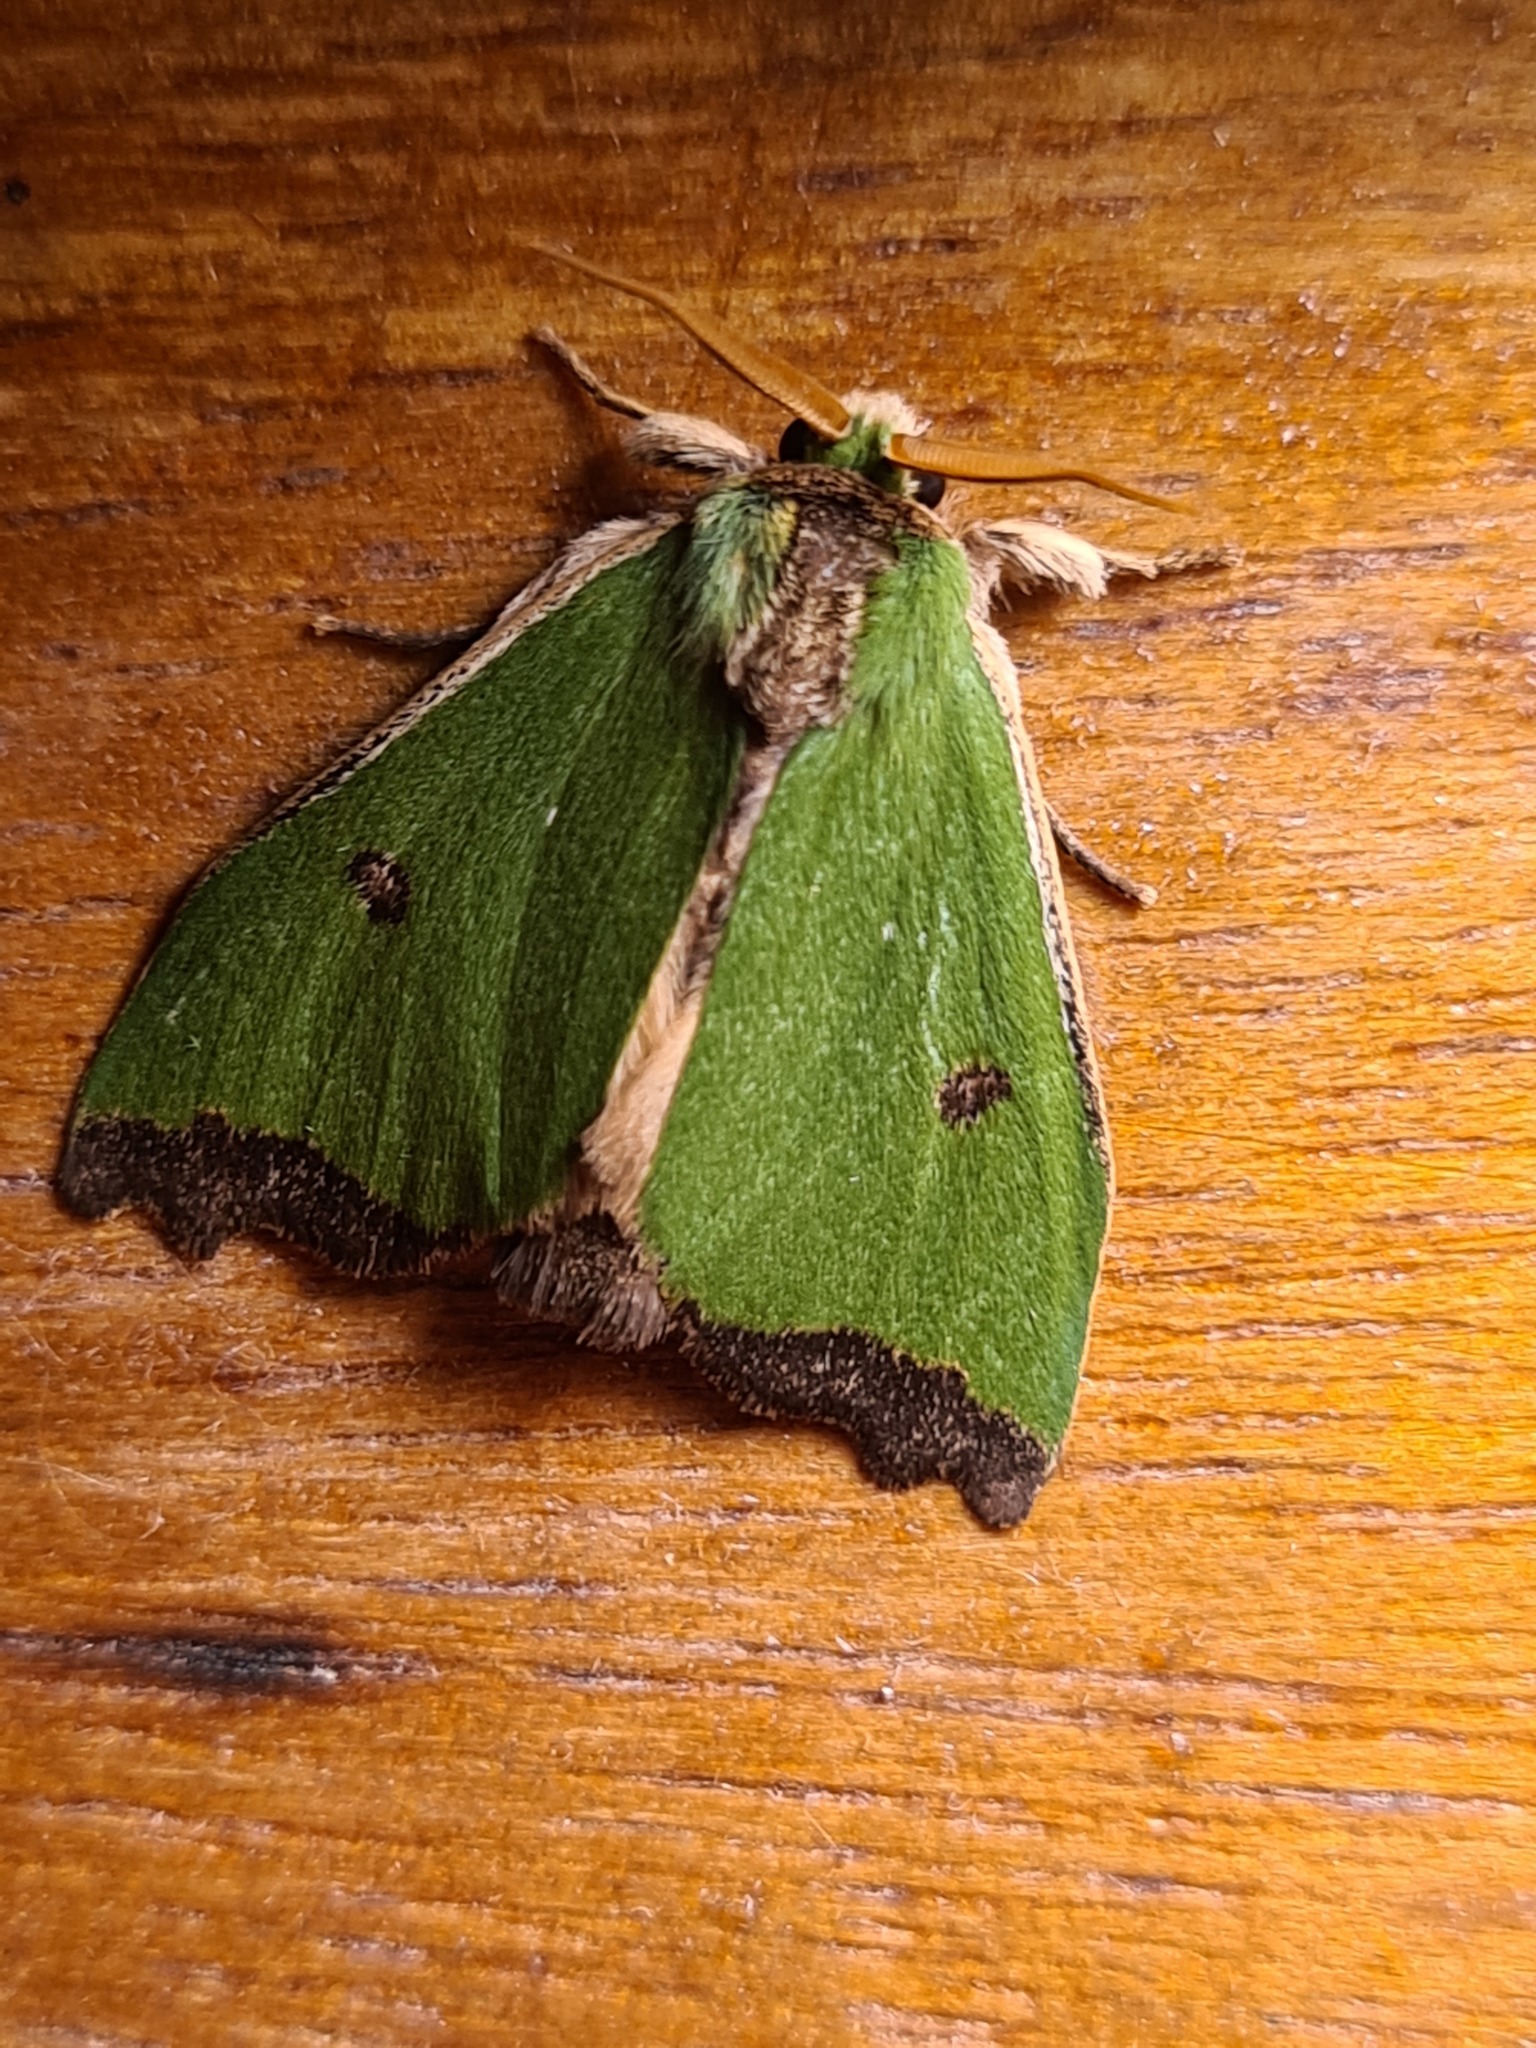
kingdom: Animalia
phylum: Arthropoda
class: Insecta
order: Lepidoptera
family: Notodontidae
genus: Rosema
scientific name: Rosema thestia
